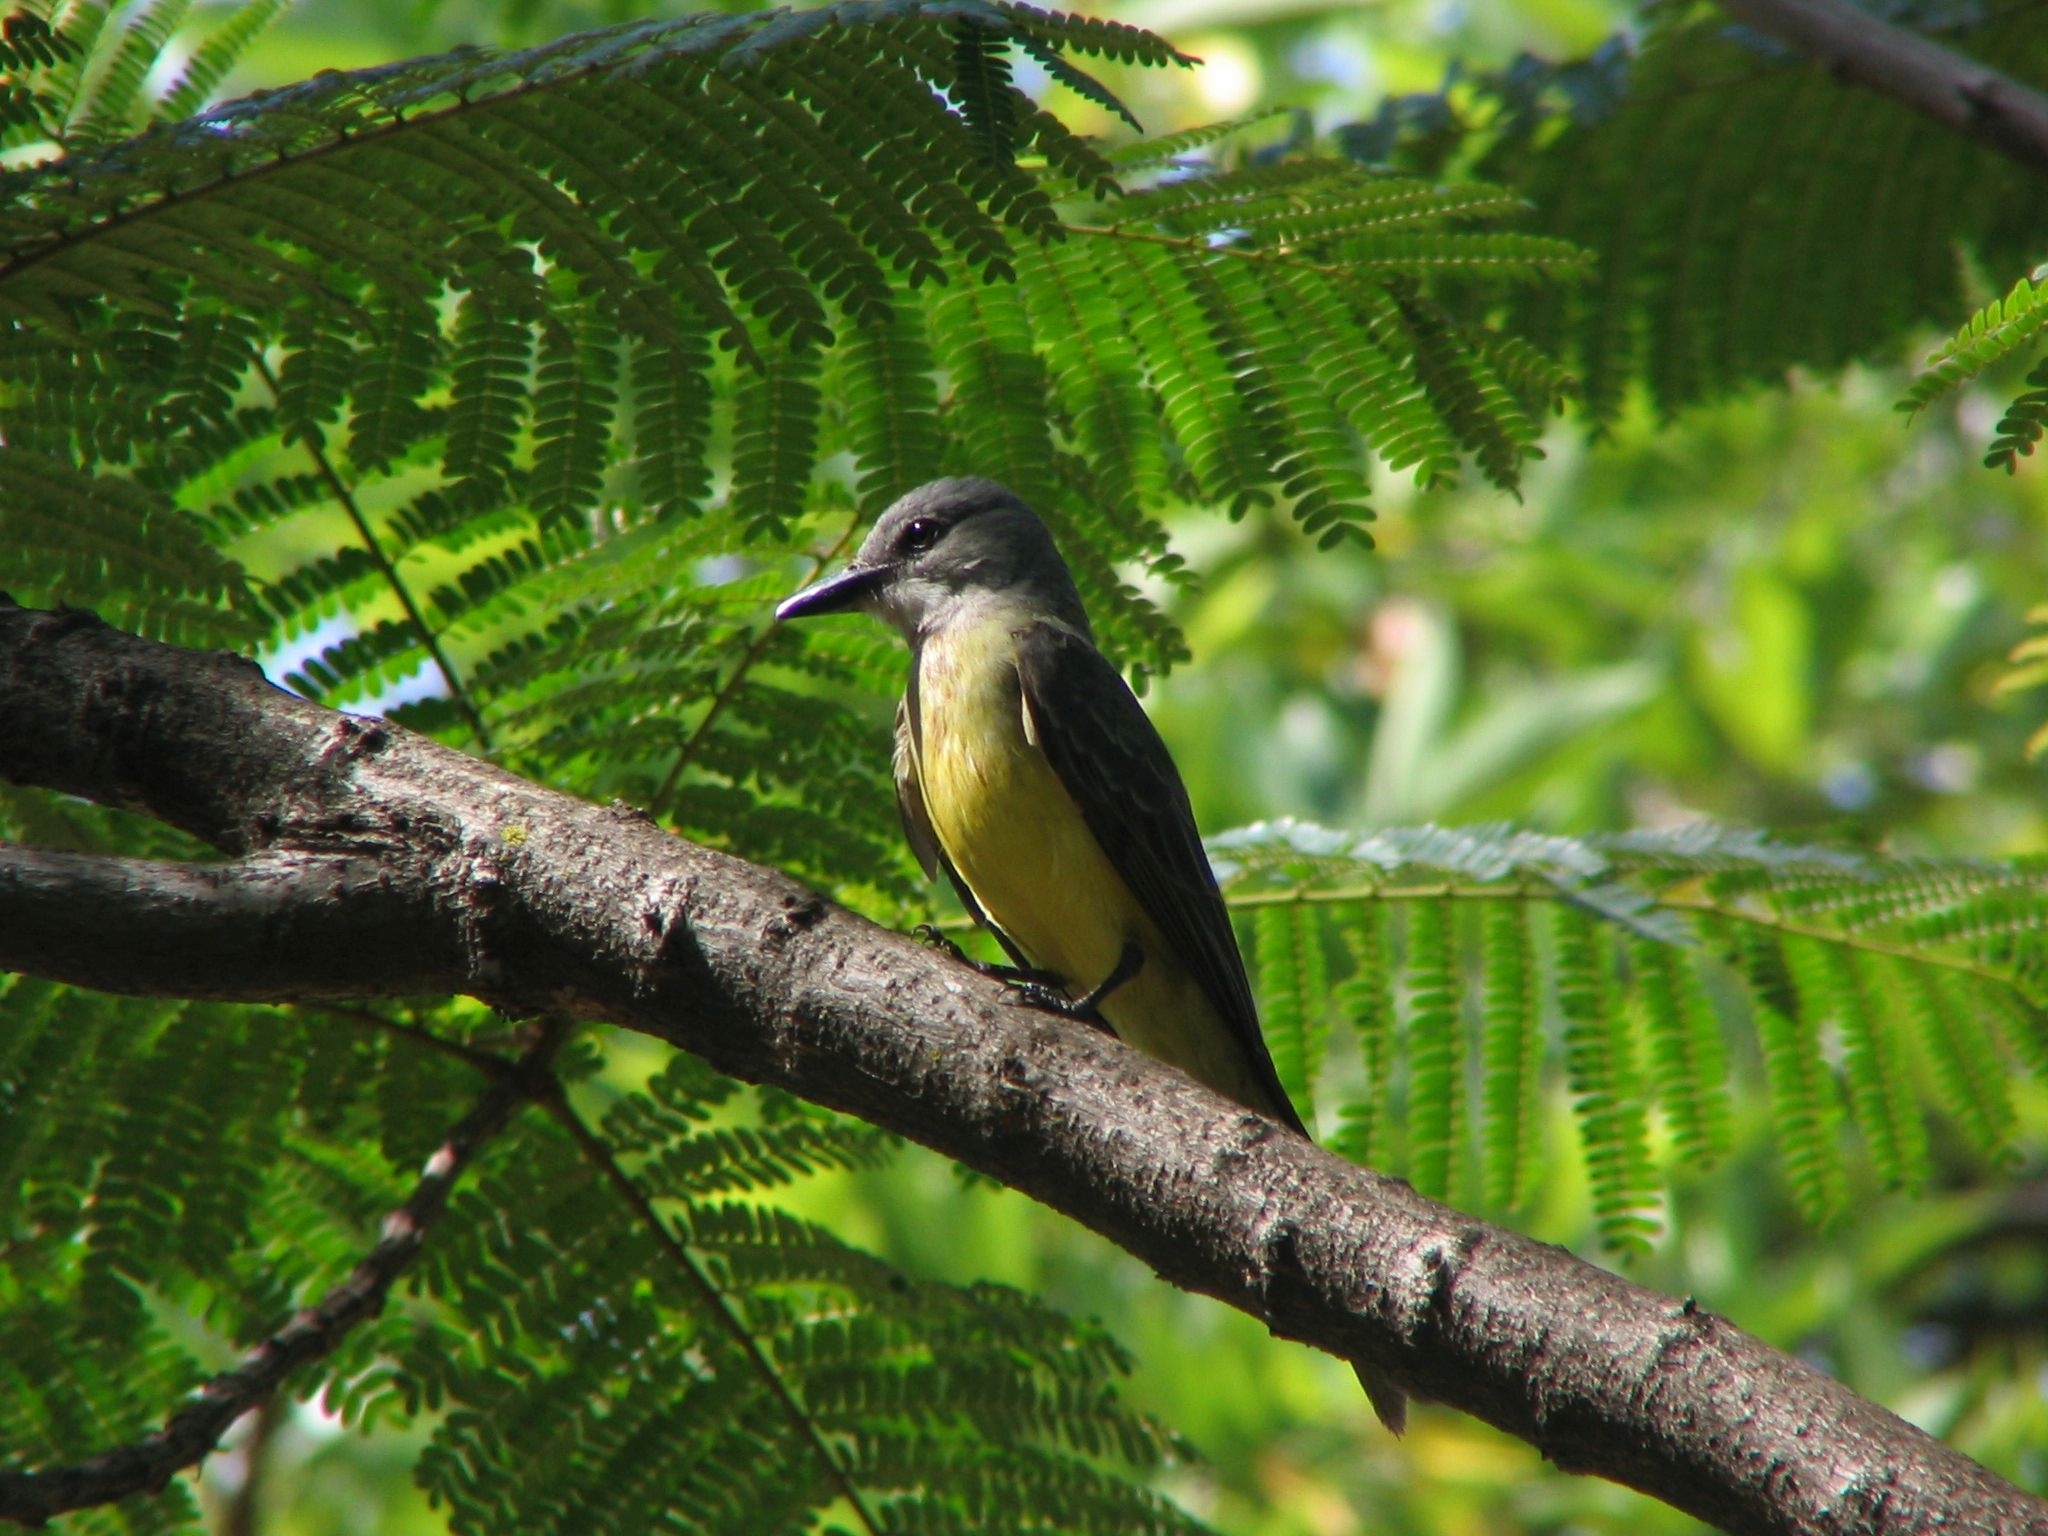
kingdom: Animalia
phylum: Chordata
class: Aves
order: Passeriformes
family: Tyrannidae
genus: Tyrannus
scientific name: Tyrannus melancholicus
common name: Tropical kingbird
